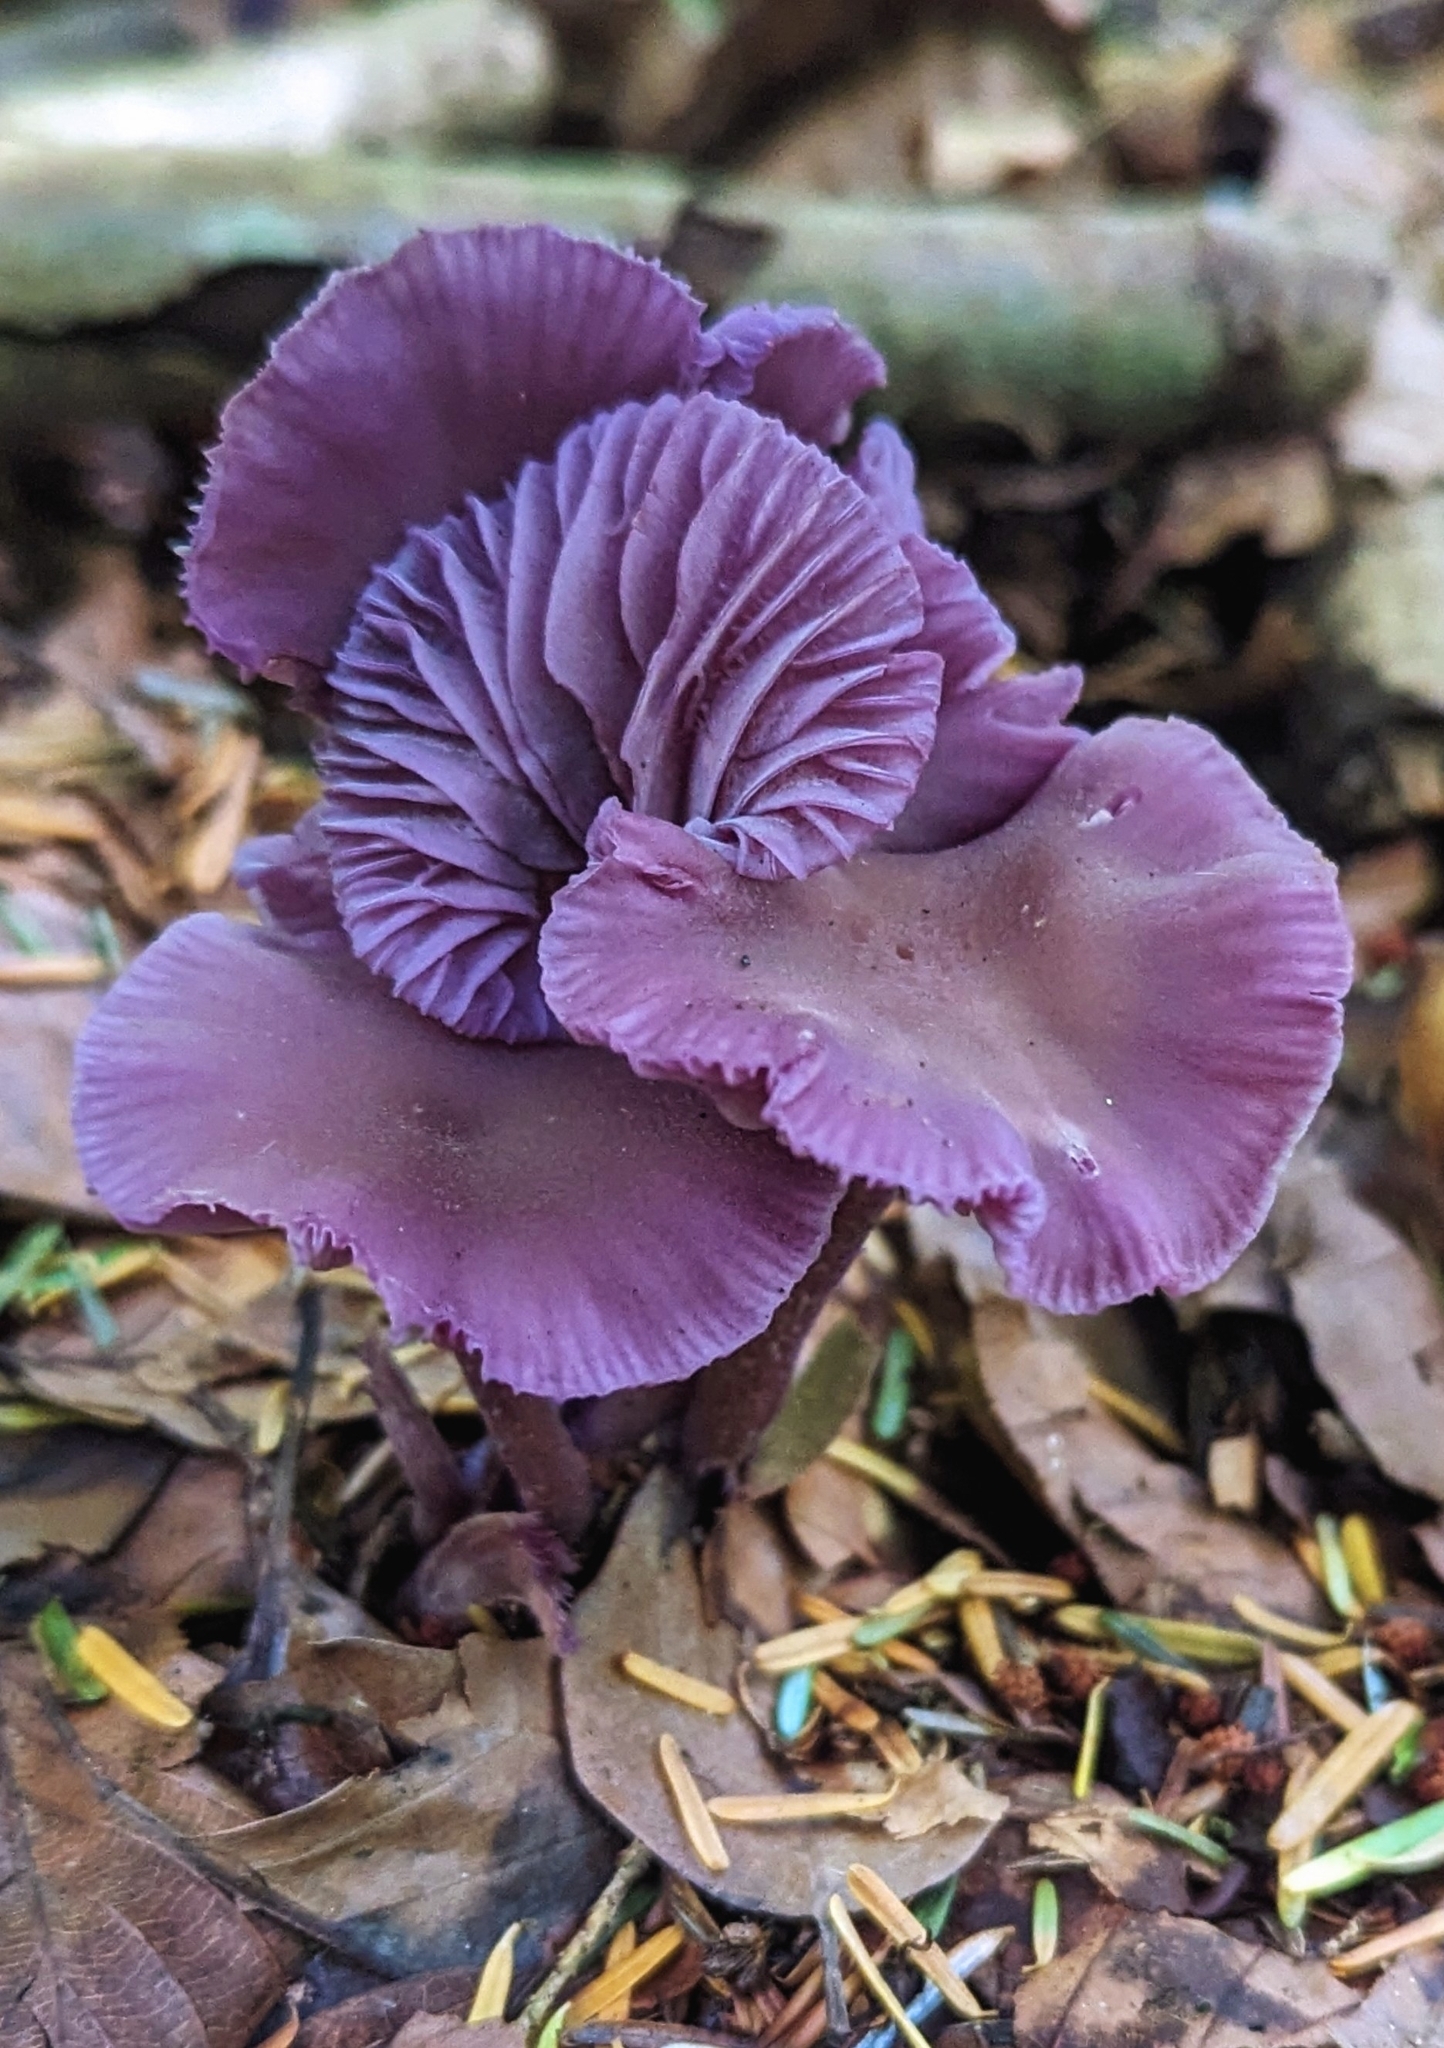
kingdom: Fungi
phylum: Basidiomycota
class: Agaricomycetes
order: Agaricales
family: Hydnangiaceae
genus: Laccaria
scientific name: Laccaria amethystina
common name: Amethyst deceiver
